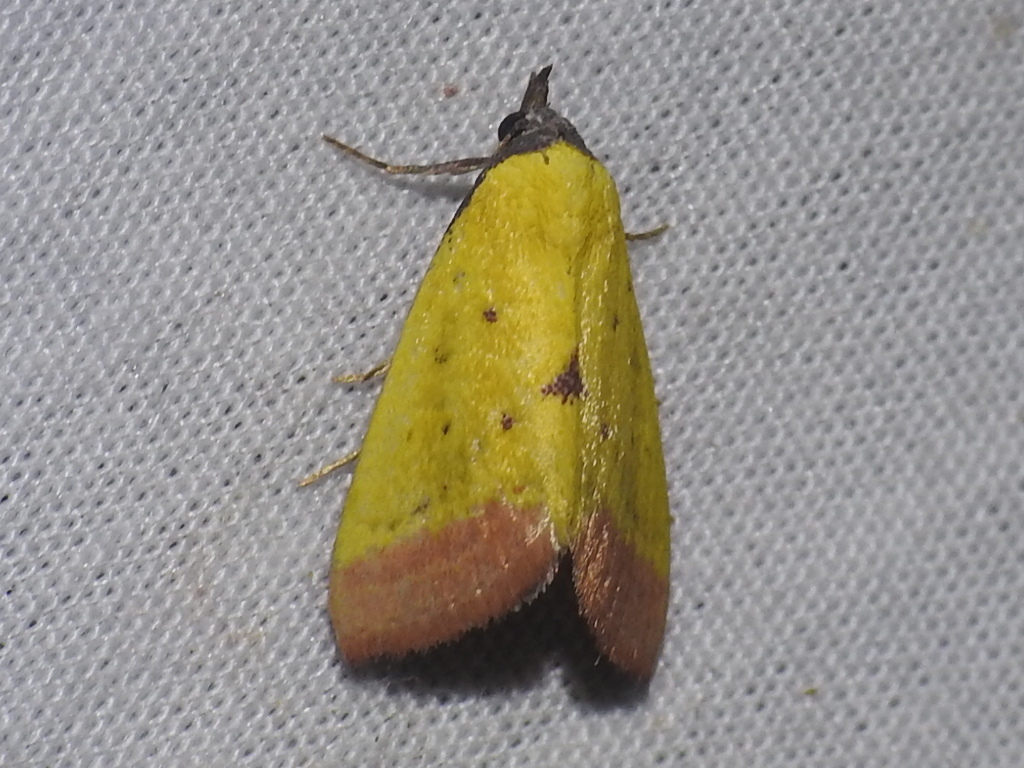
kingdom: Animalia
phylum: Arthropoda
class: Insecta
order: Lepidoptera
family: Erebidae
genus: Phytometra
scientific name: Phytometra orgiae
